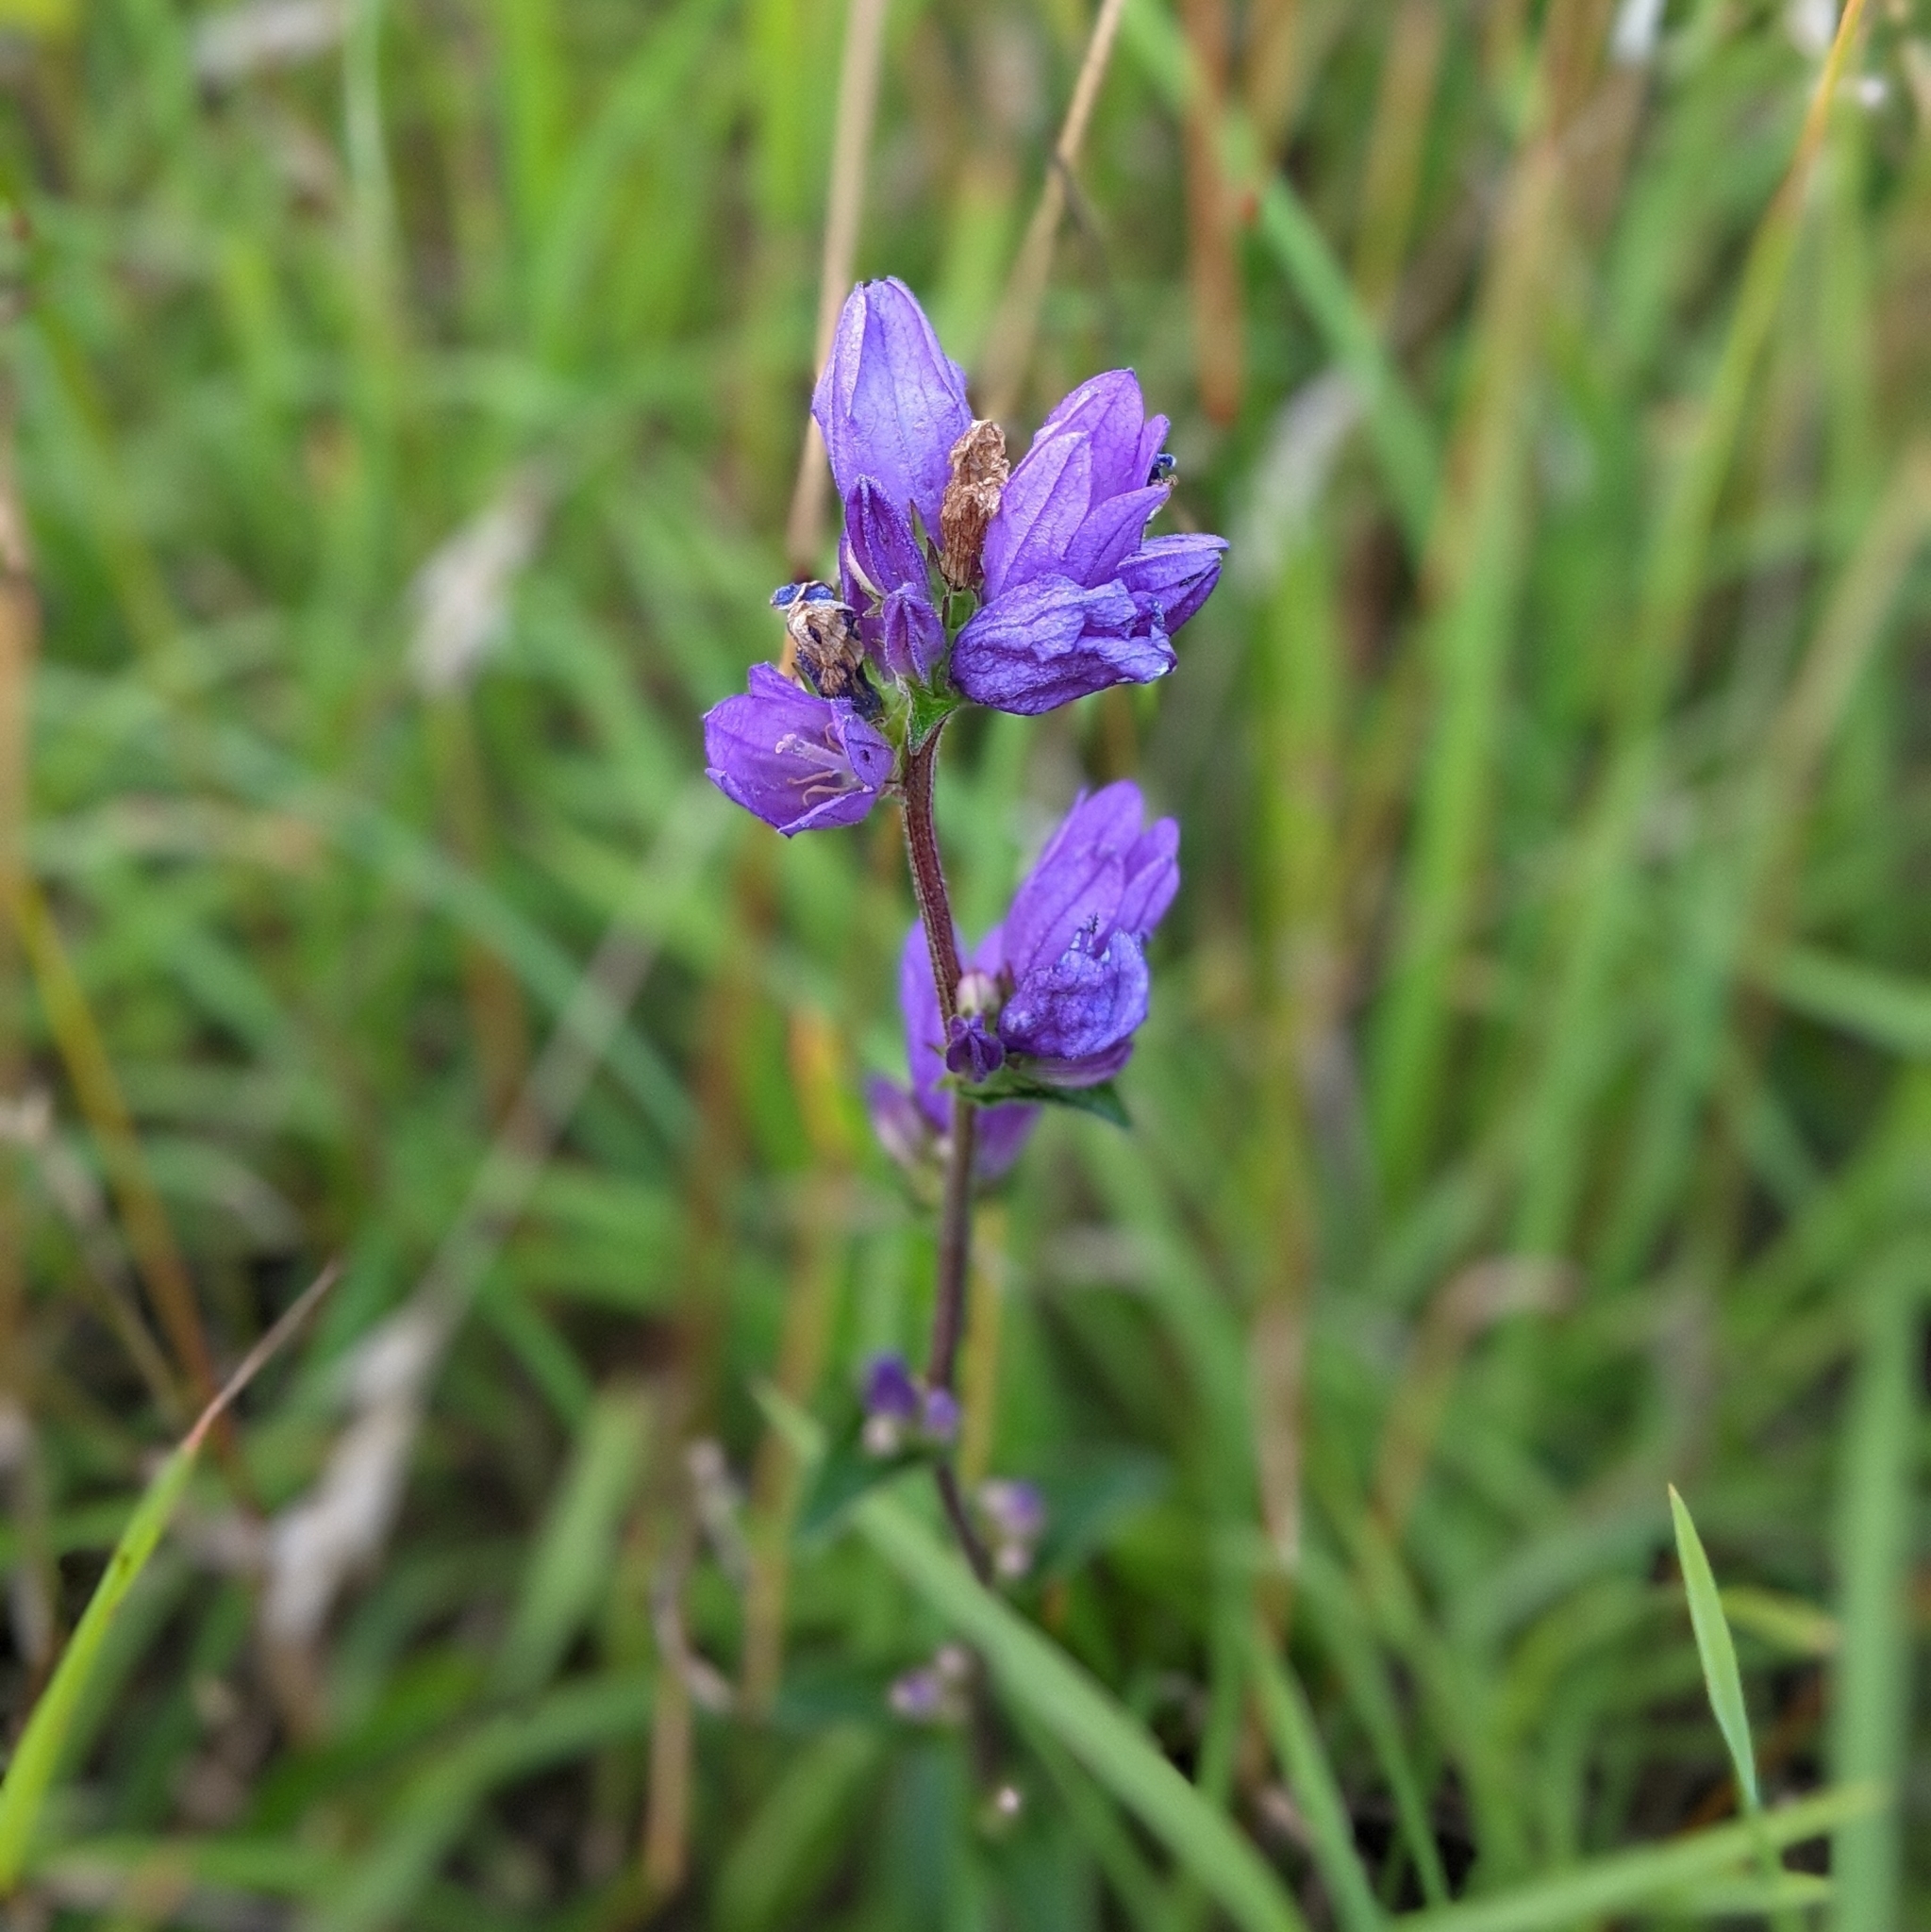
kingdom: Plantae
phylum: Tracheophyta
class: Magnoliopsida
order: Asterales
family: Campanulaceae
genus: Campanula
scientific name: Campanula glomerata
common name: Clustered bellflower
